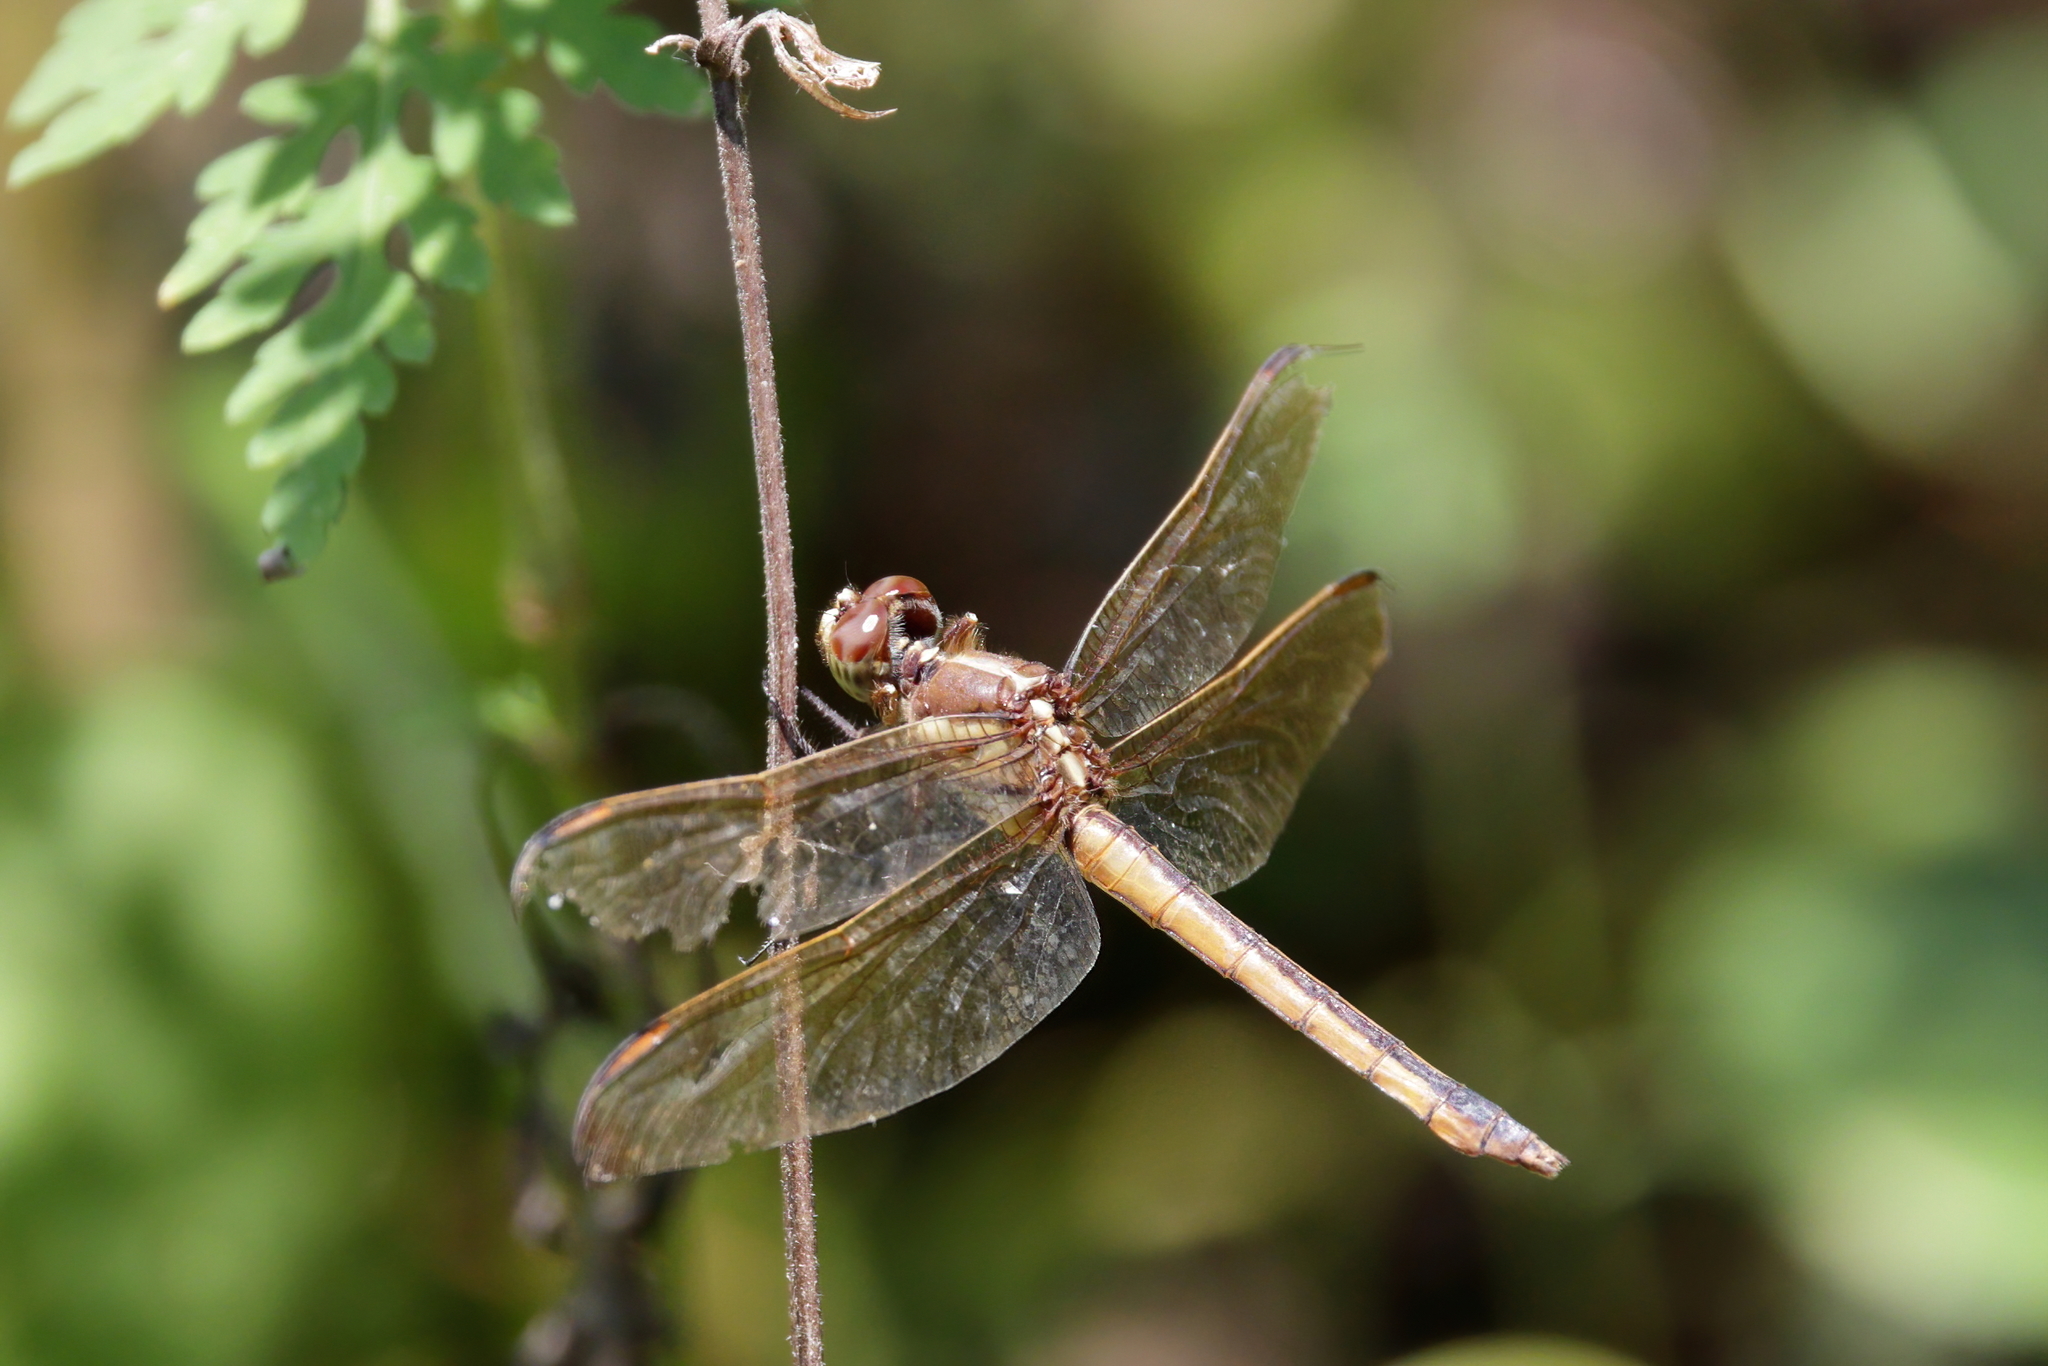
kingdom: Animalia
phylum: Arthropoda
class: Insecta
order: Odonata
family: Libellulidae
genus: Libellula
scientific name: Libellula auripennis
